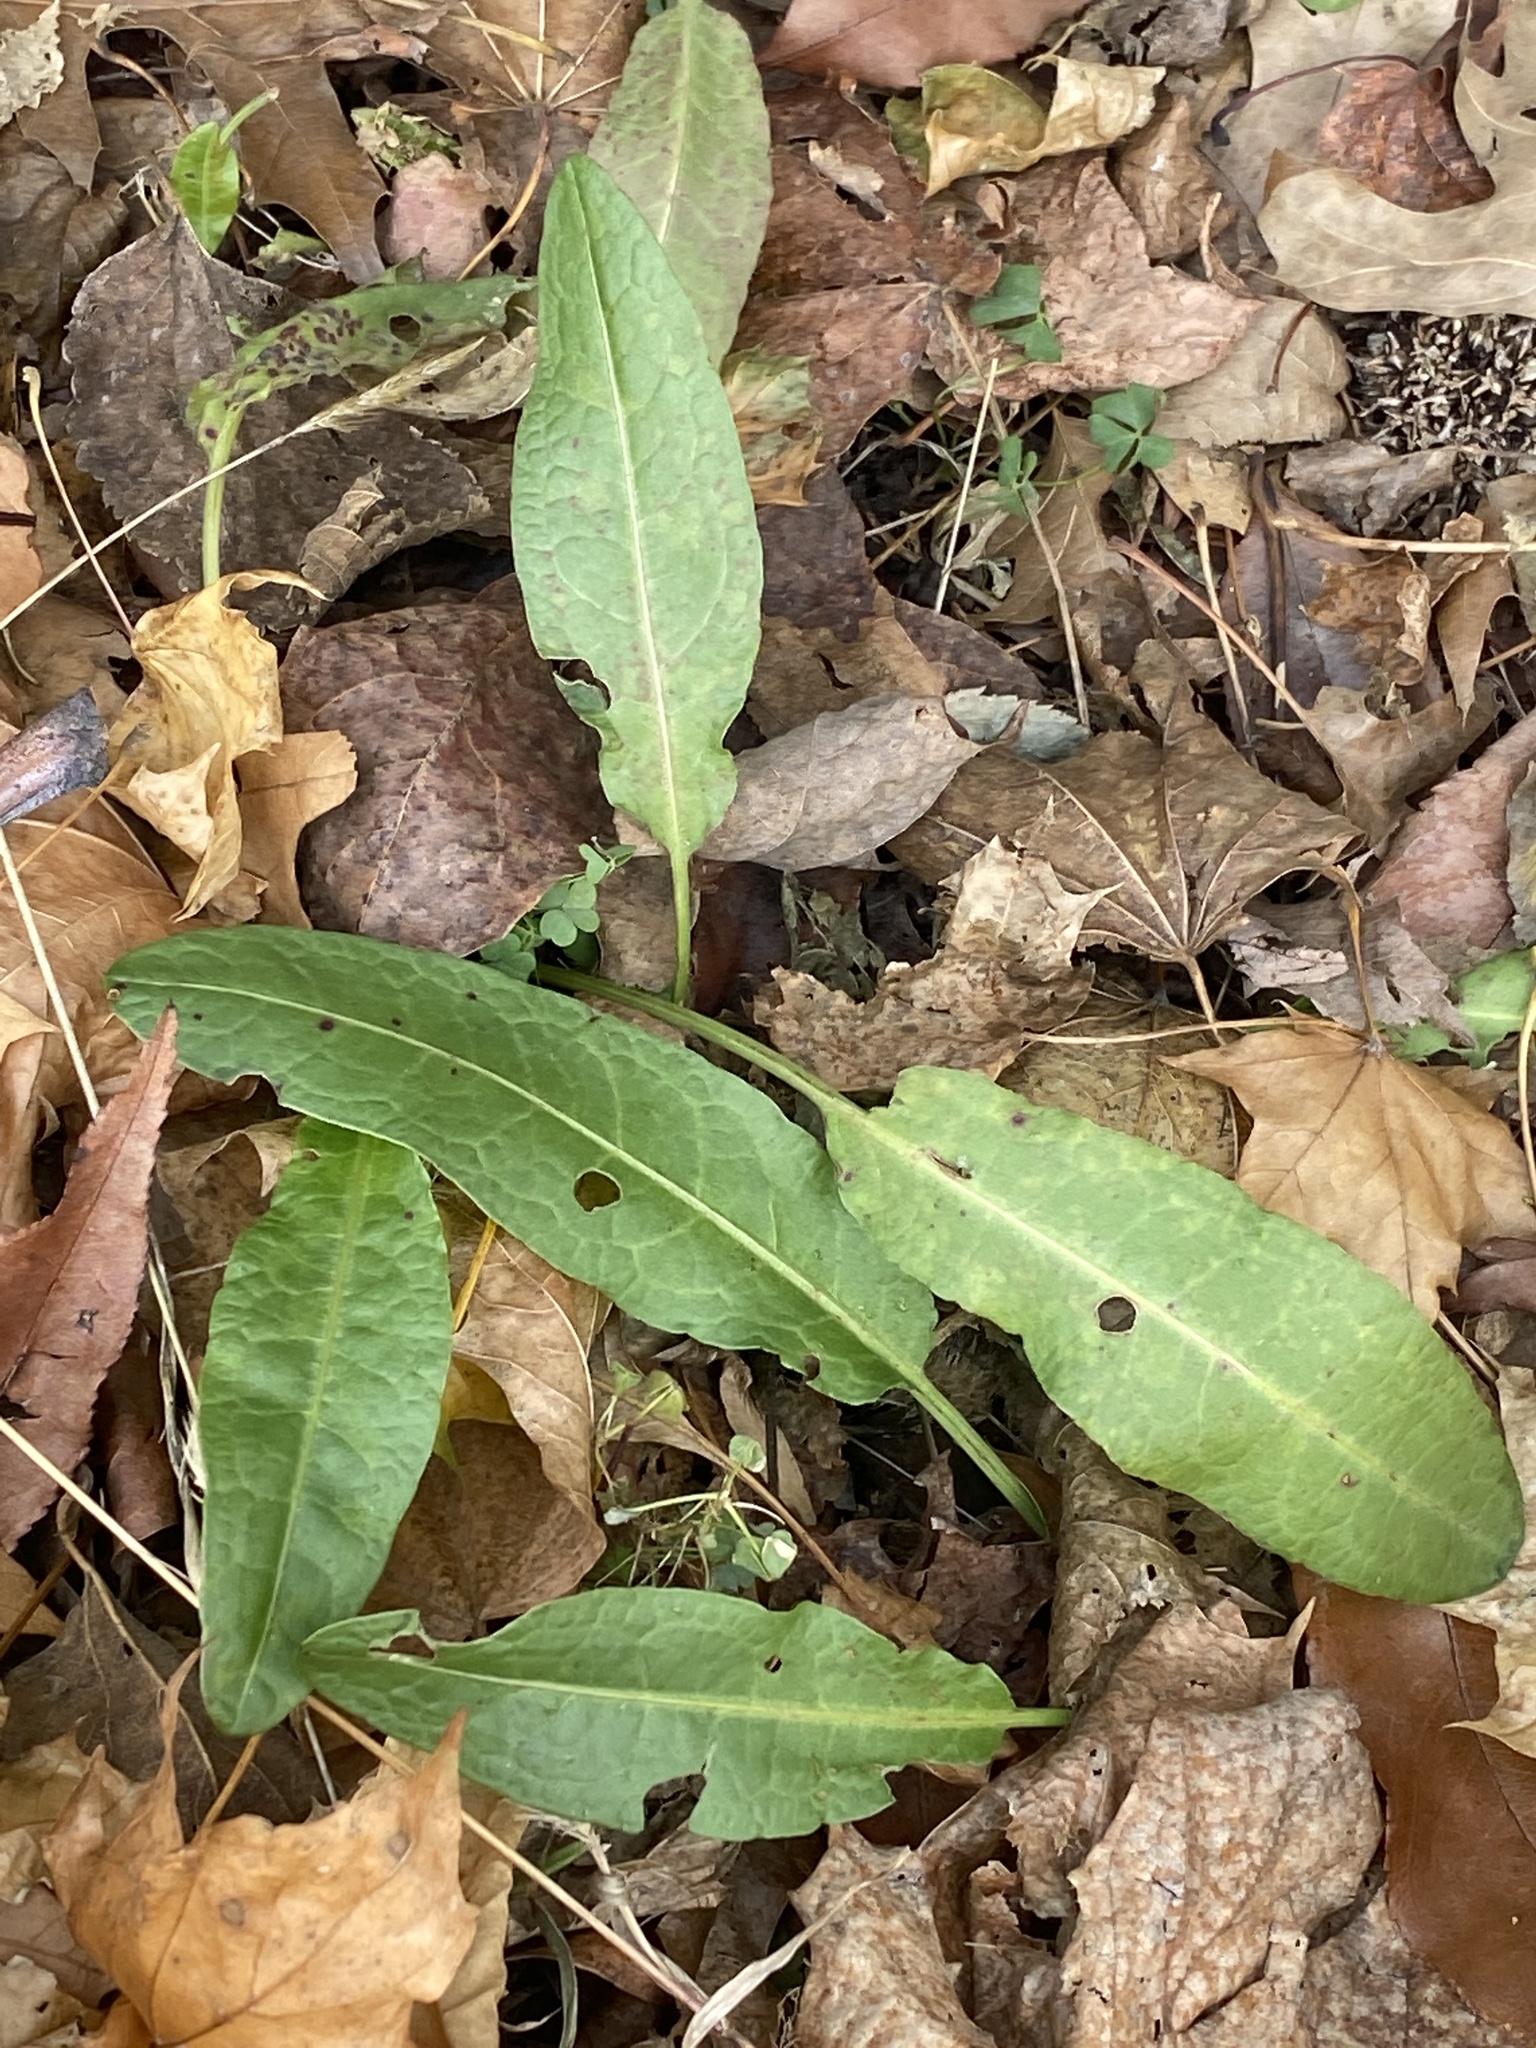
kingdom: Plantae
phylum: Tracheophyta
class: Magnoliopsida
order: Caryophyllales
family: Polygonaceae
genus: Rumex
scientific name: Rumex crispus
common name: Curled dock
